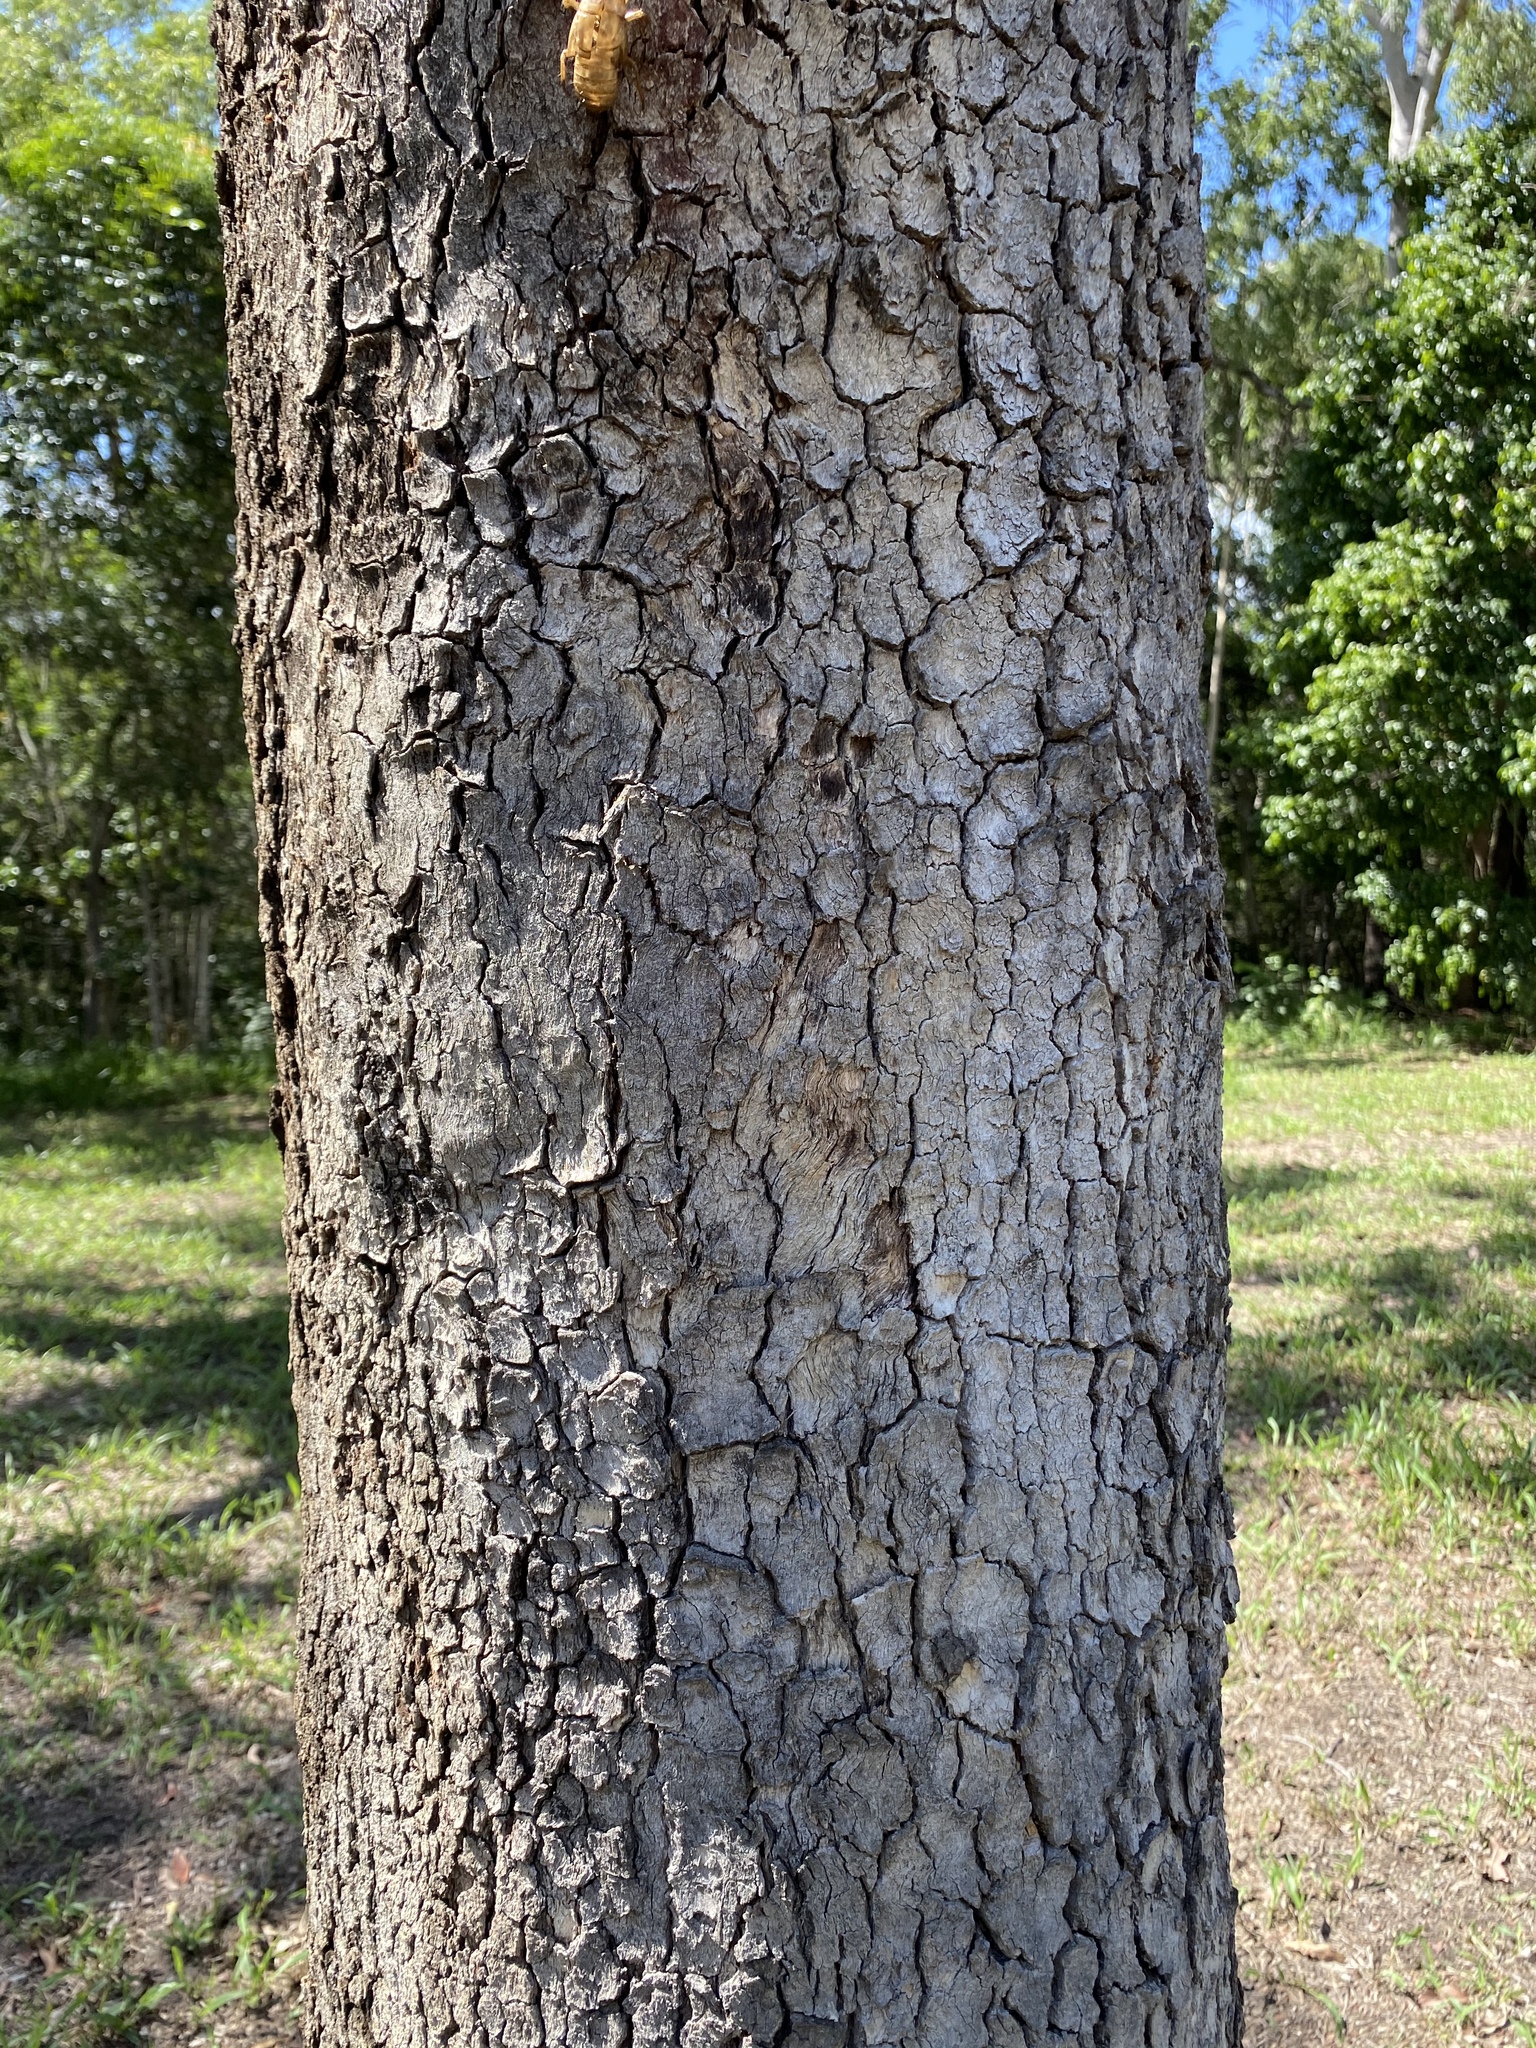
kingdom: Plantae
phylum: Tracheophyta
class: Magnoliopsida
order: Myrtales
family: Myrtaceae
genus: Corymbia
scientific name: Corymbia tessellaris
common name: Carbeen
